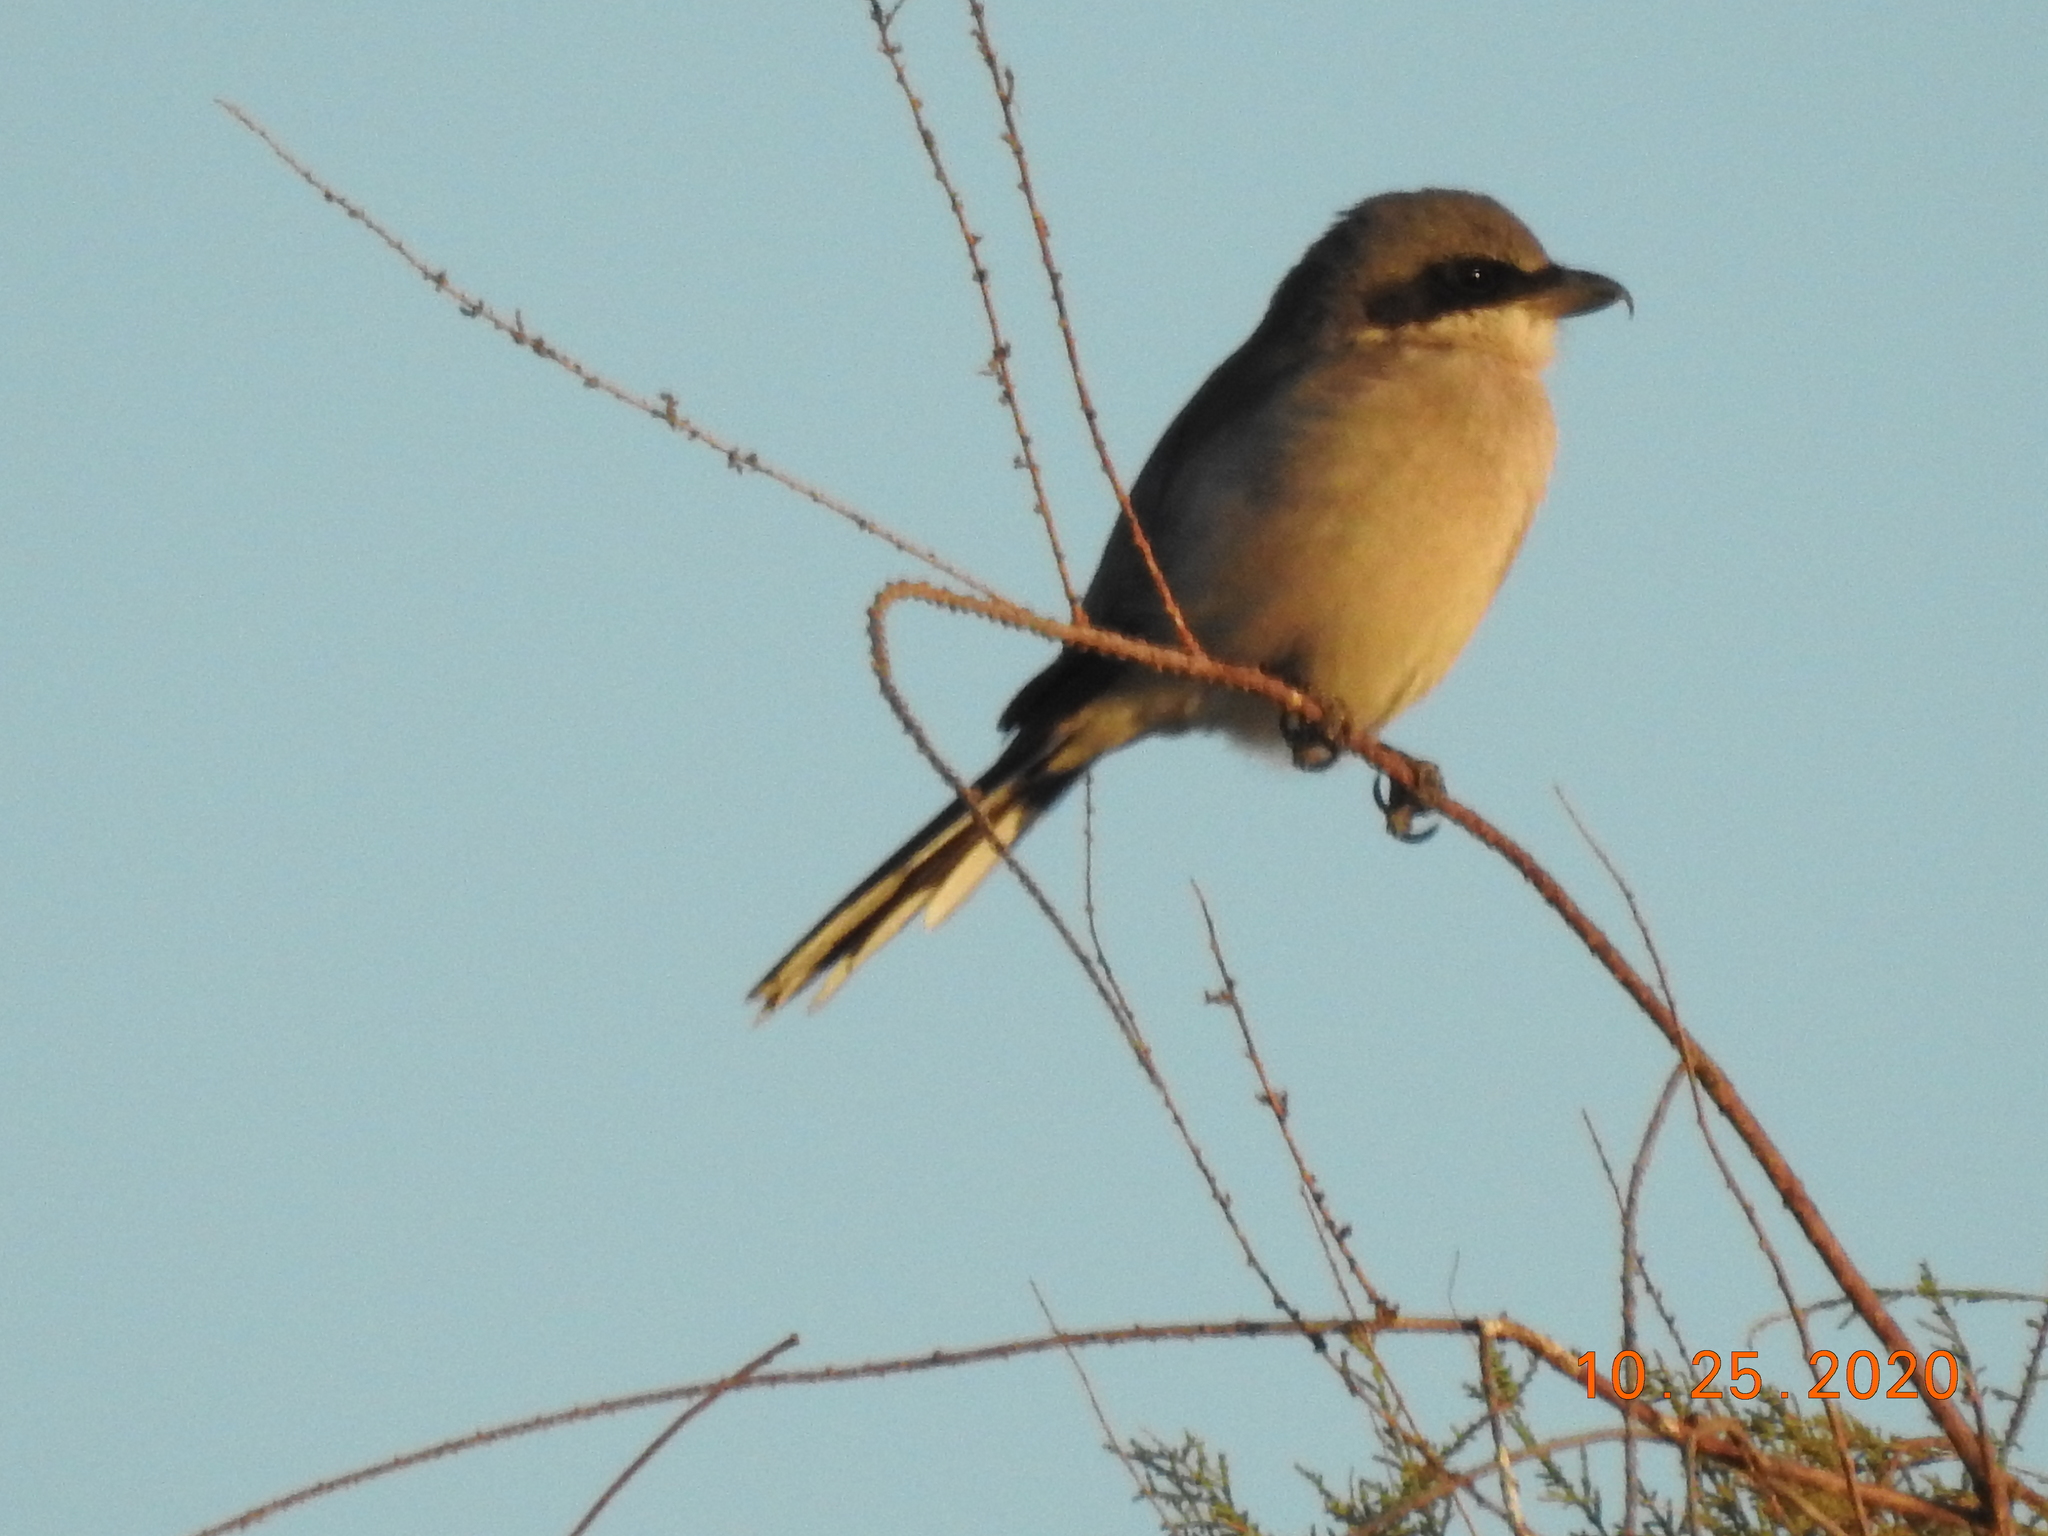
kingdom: Animalia
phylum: Chordata
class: Aves
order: Passeriformes
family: Laniidae
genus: Lanius
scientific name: Lanius ludovicianus
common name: Loggerhead shrike
